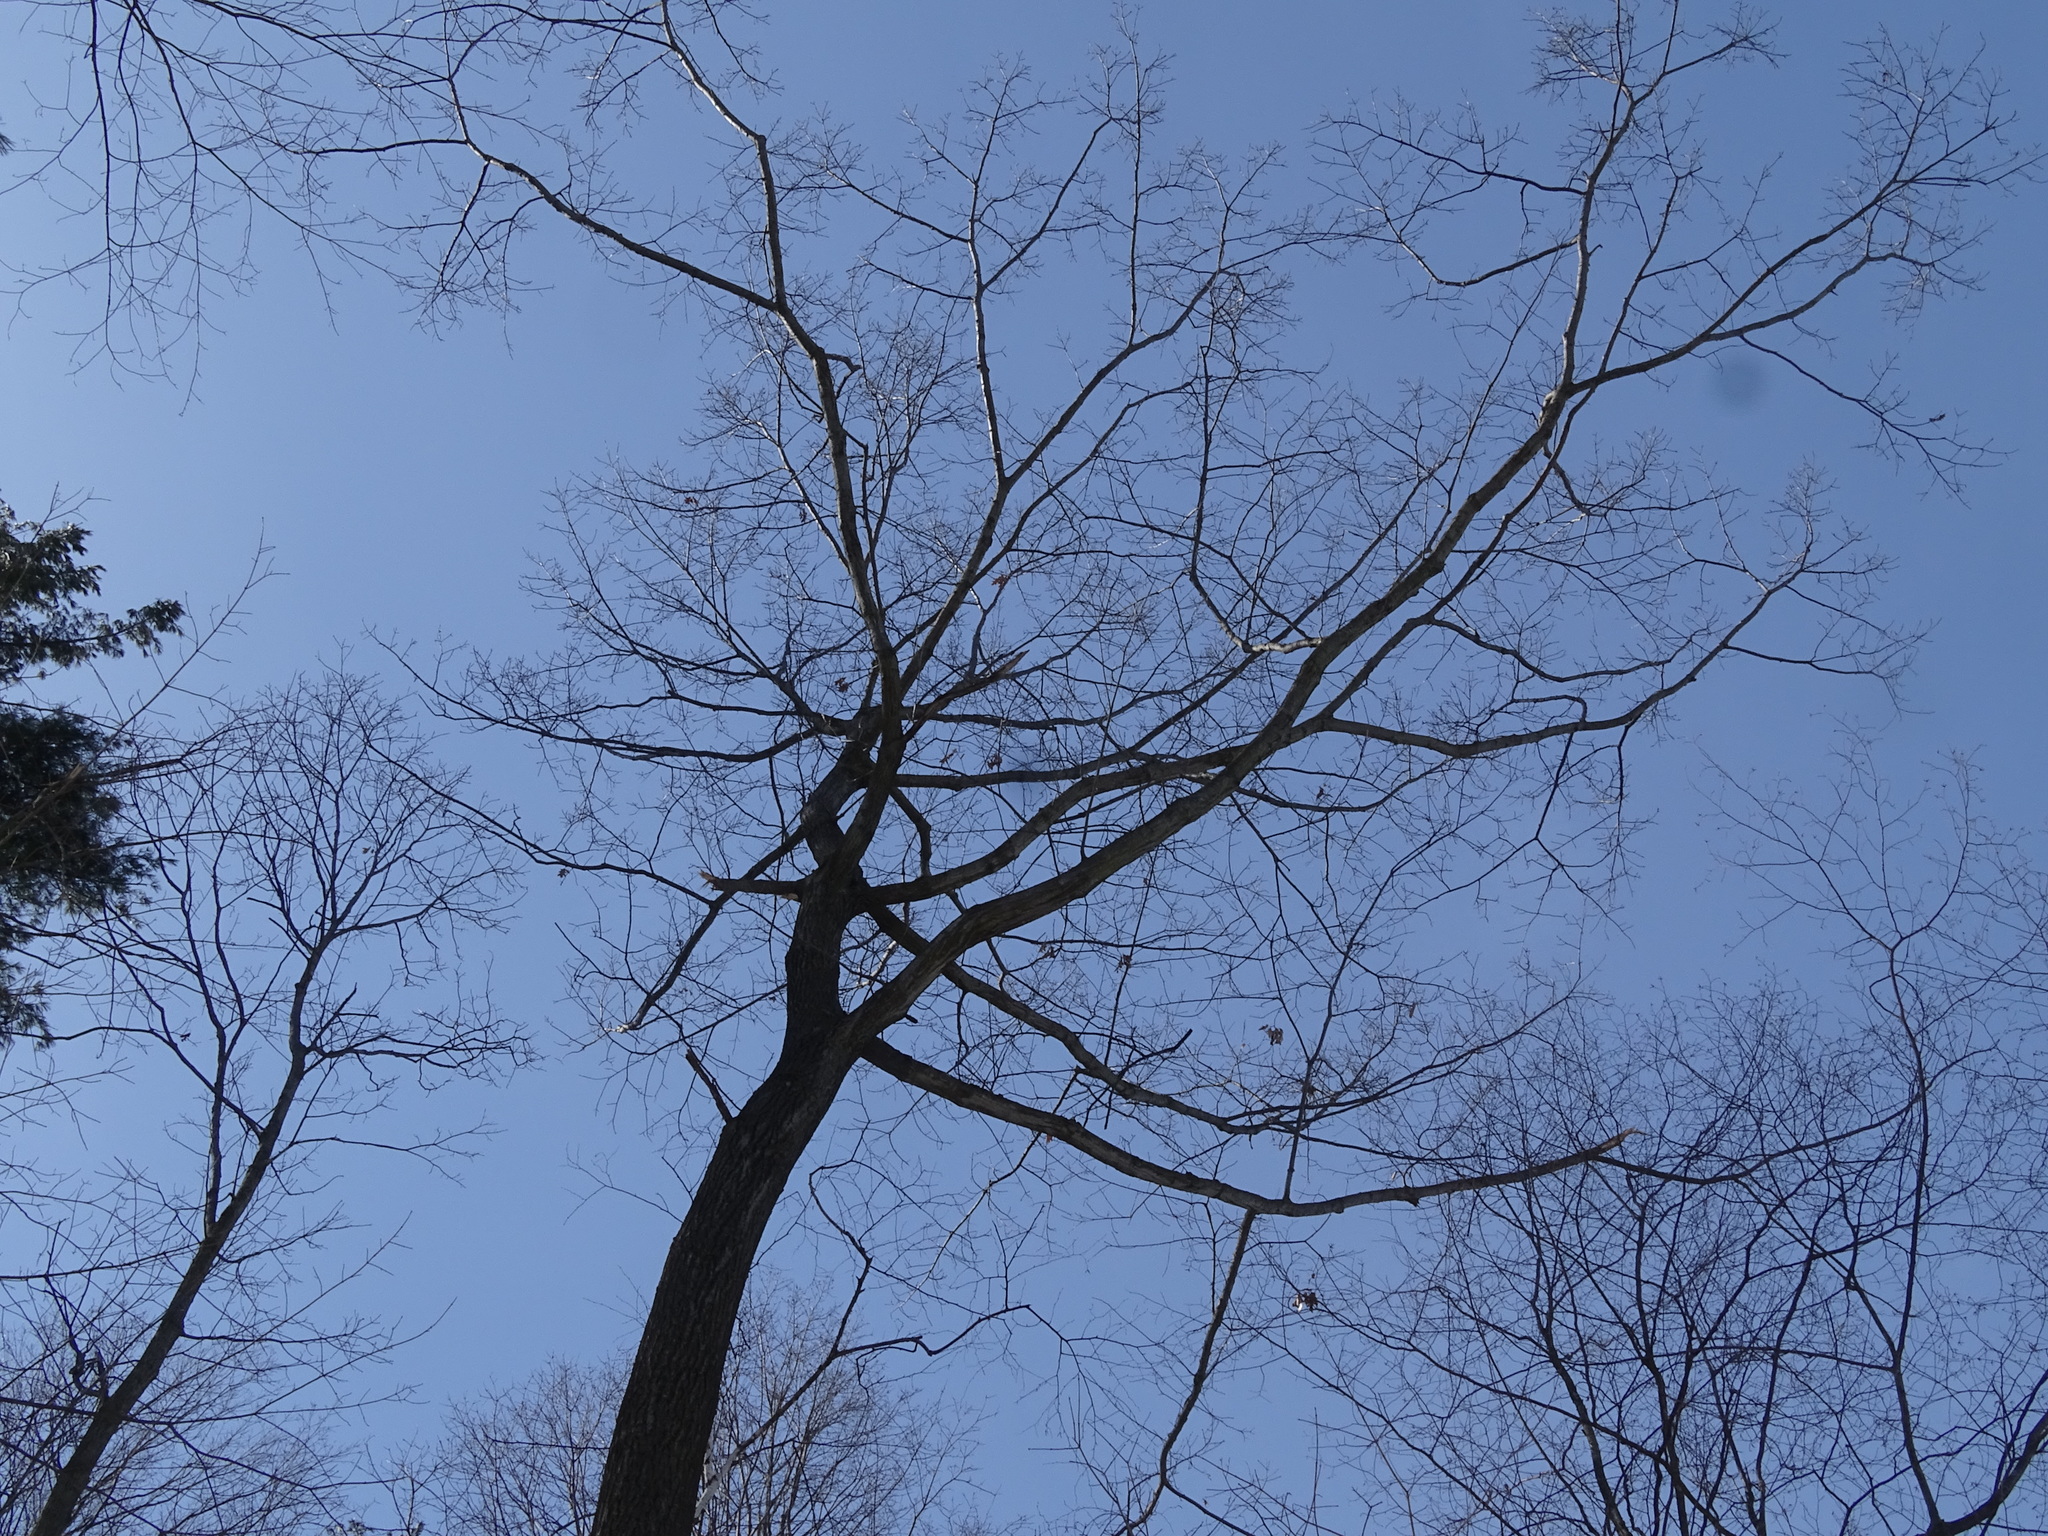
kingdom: Plantae
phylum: Tracheophyta
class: Magnoliopsida
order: Fagales
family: Fagaceae
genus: Quercus
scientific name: Quercus rubra
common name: Red oak
